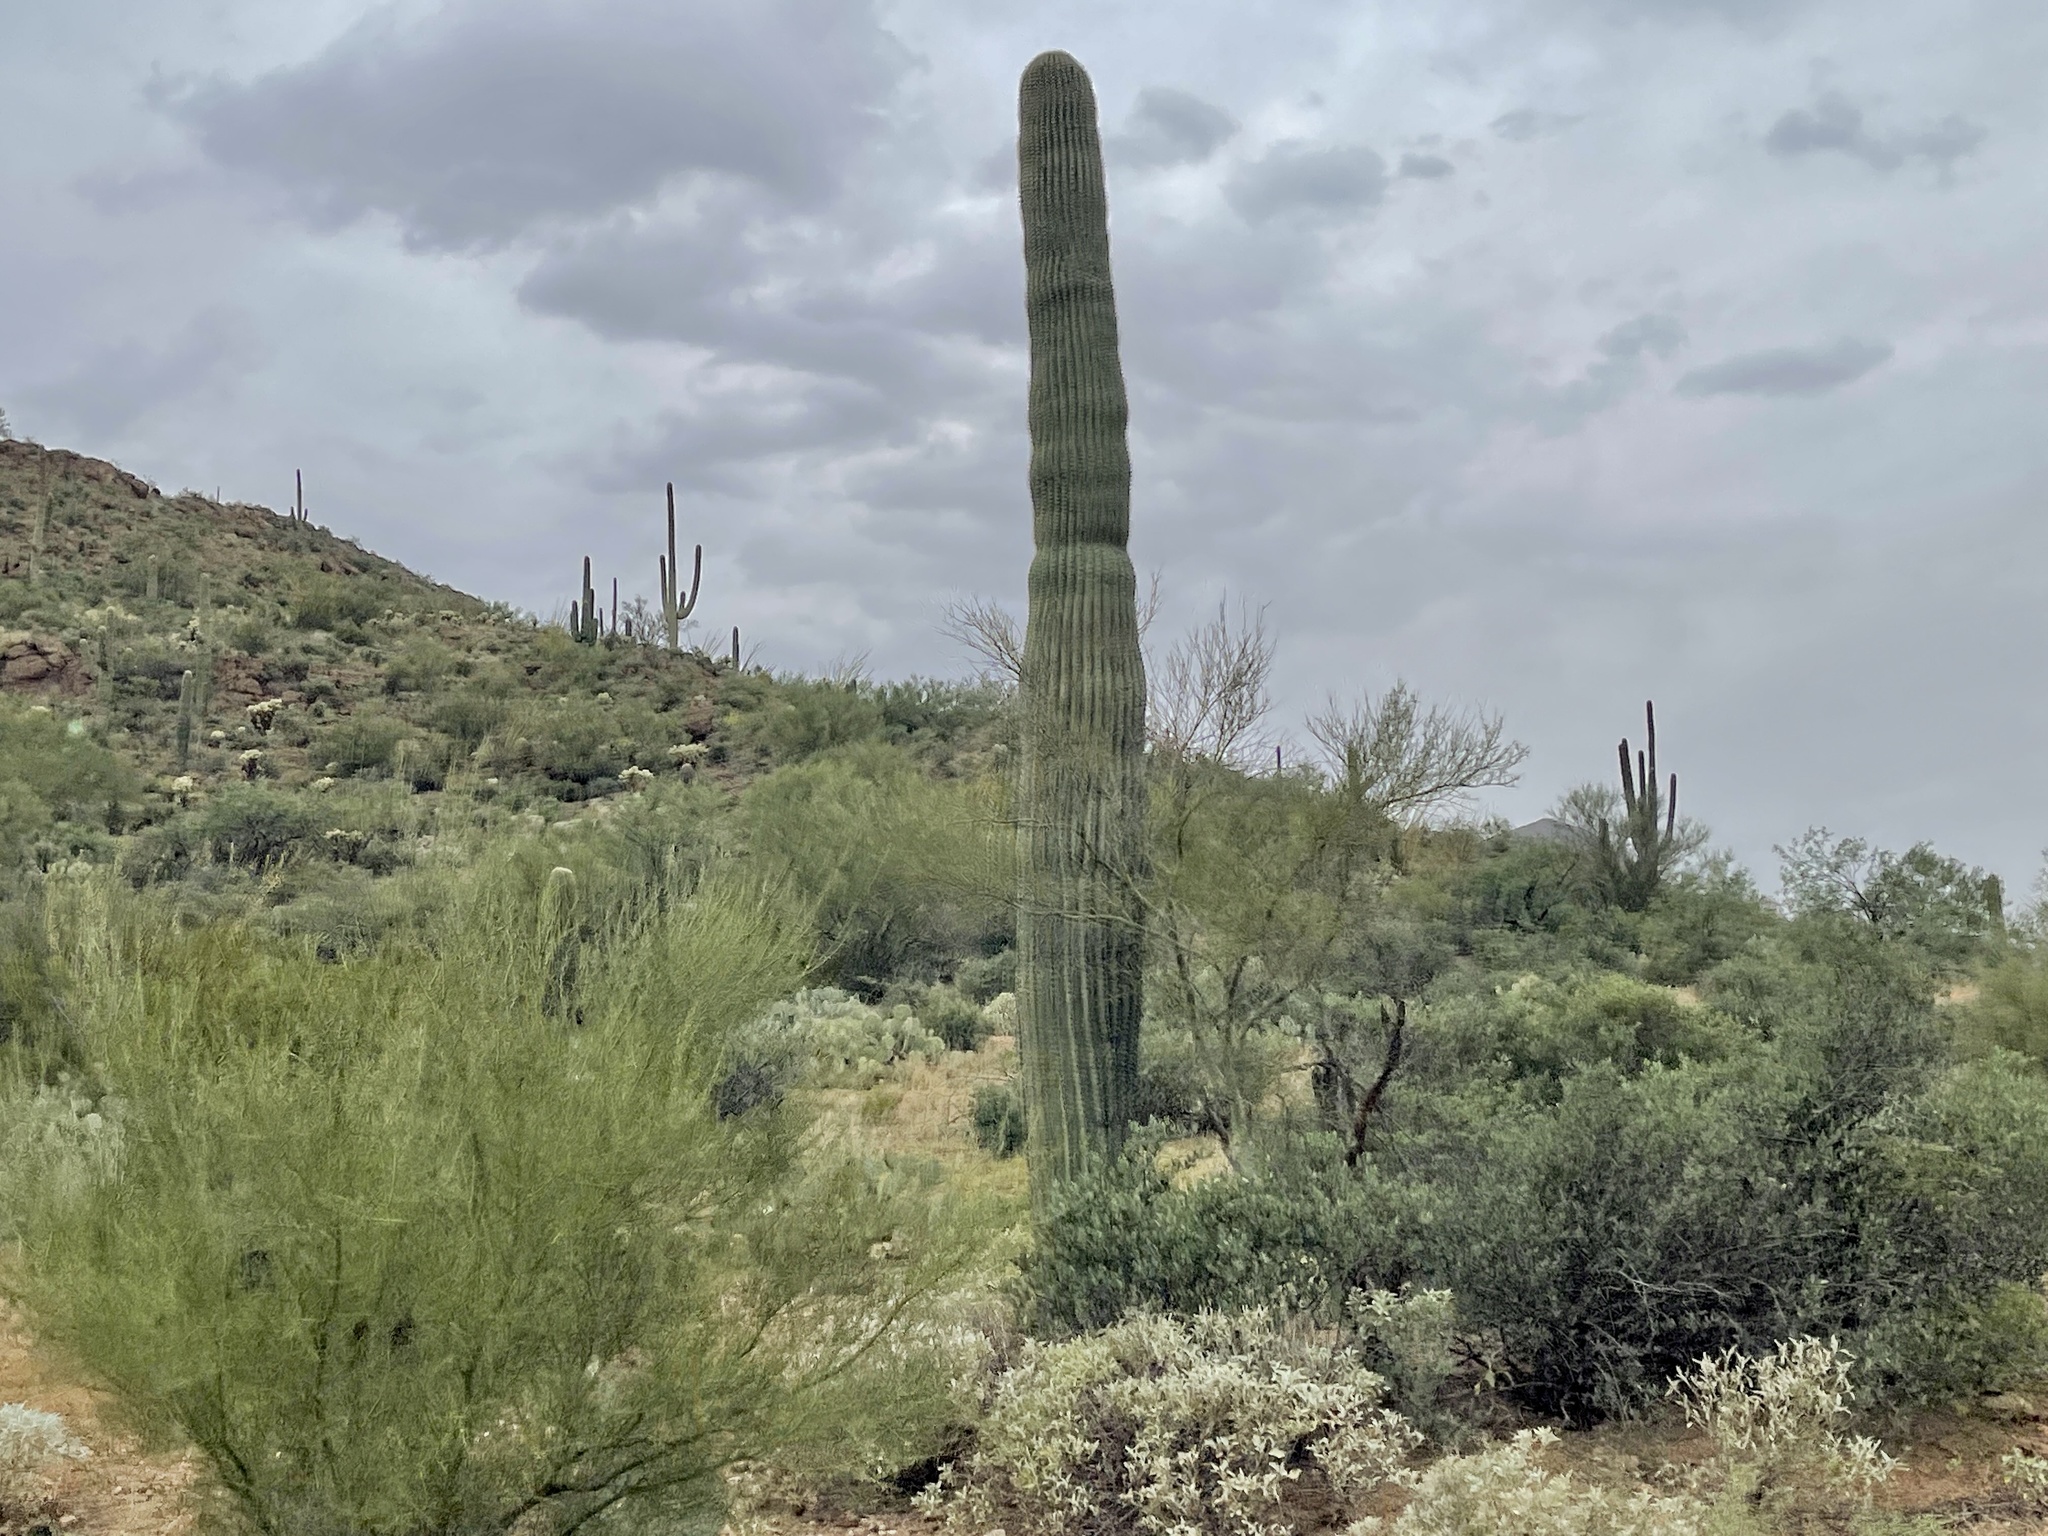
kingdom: Plantae
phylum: Tracheophyta
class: Magnoliopsida
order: Caryophyllales
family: Cactaceae
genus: Carnegiea
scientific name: Carnegiea gigantea
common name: Saguaro
